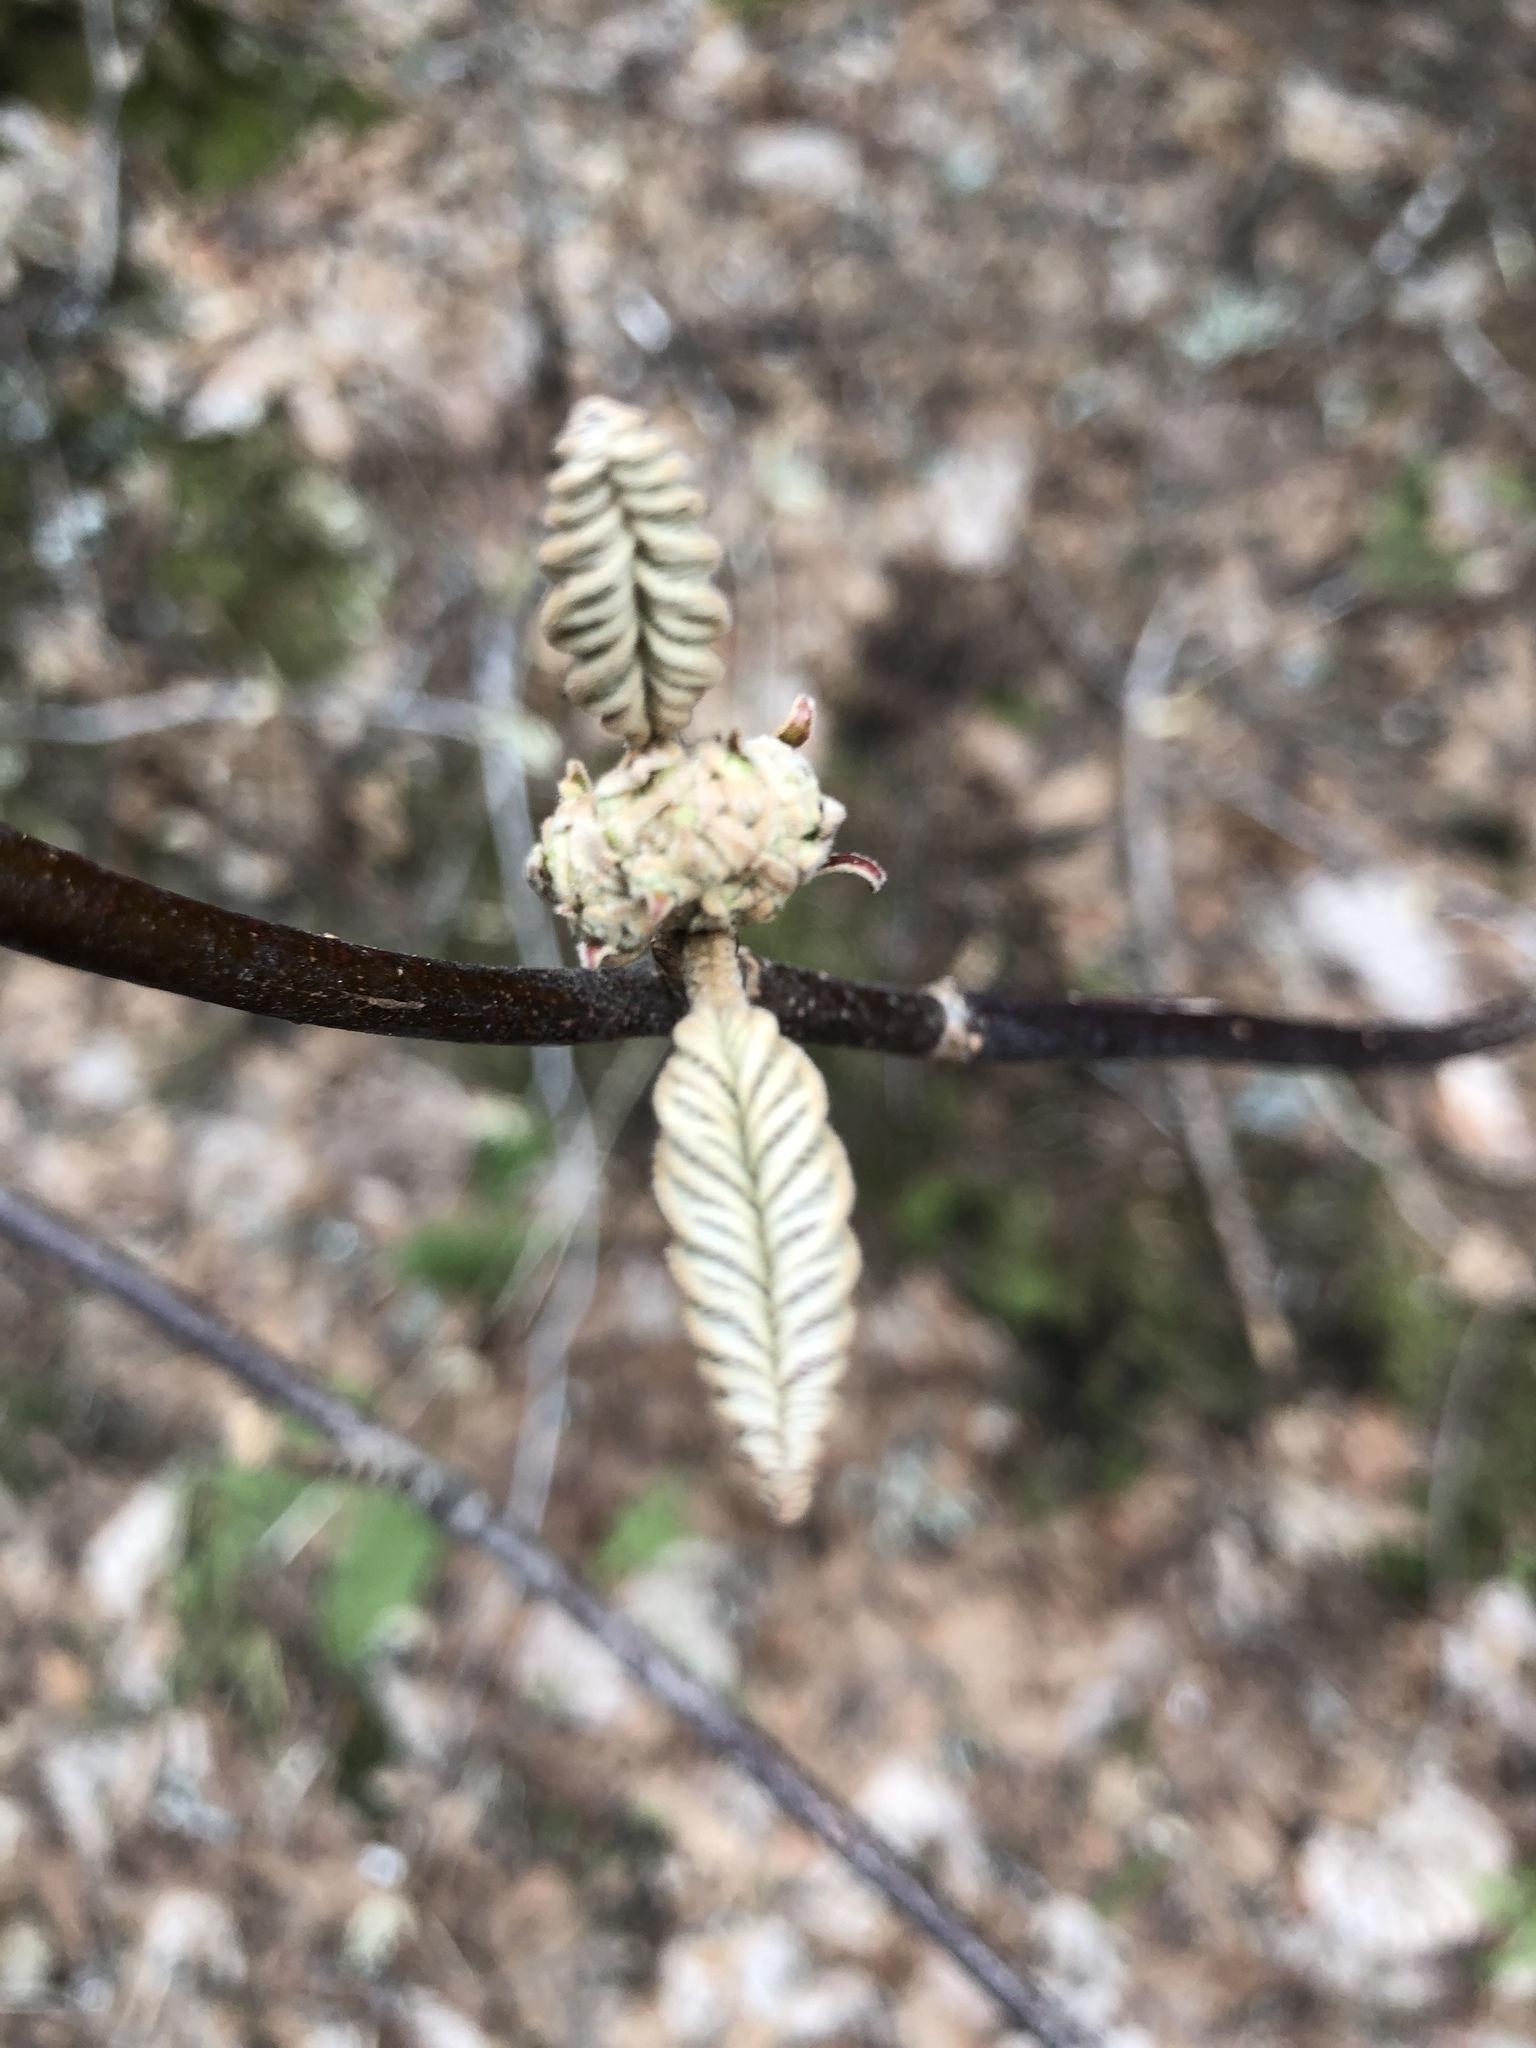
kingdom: Plantae
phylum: Tracheophyta
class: Magnoliopsida
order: Dipsacales
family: Viburnaceae
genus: Viburnum
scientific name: Viburnum lantanoides
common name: Hobblebush
